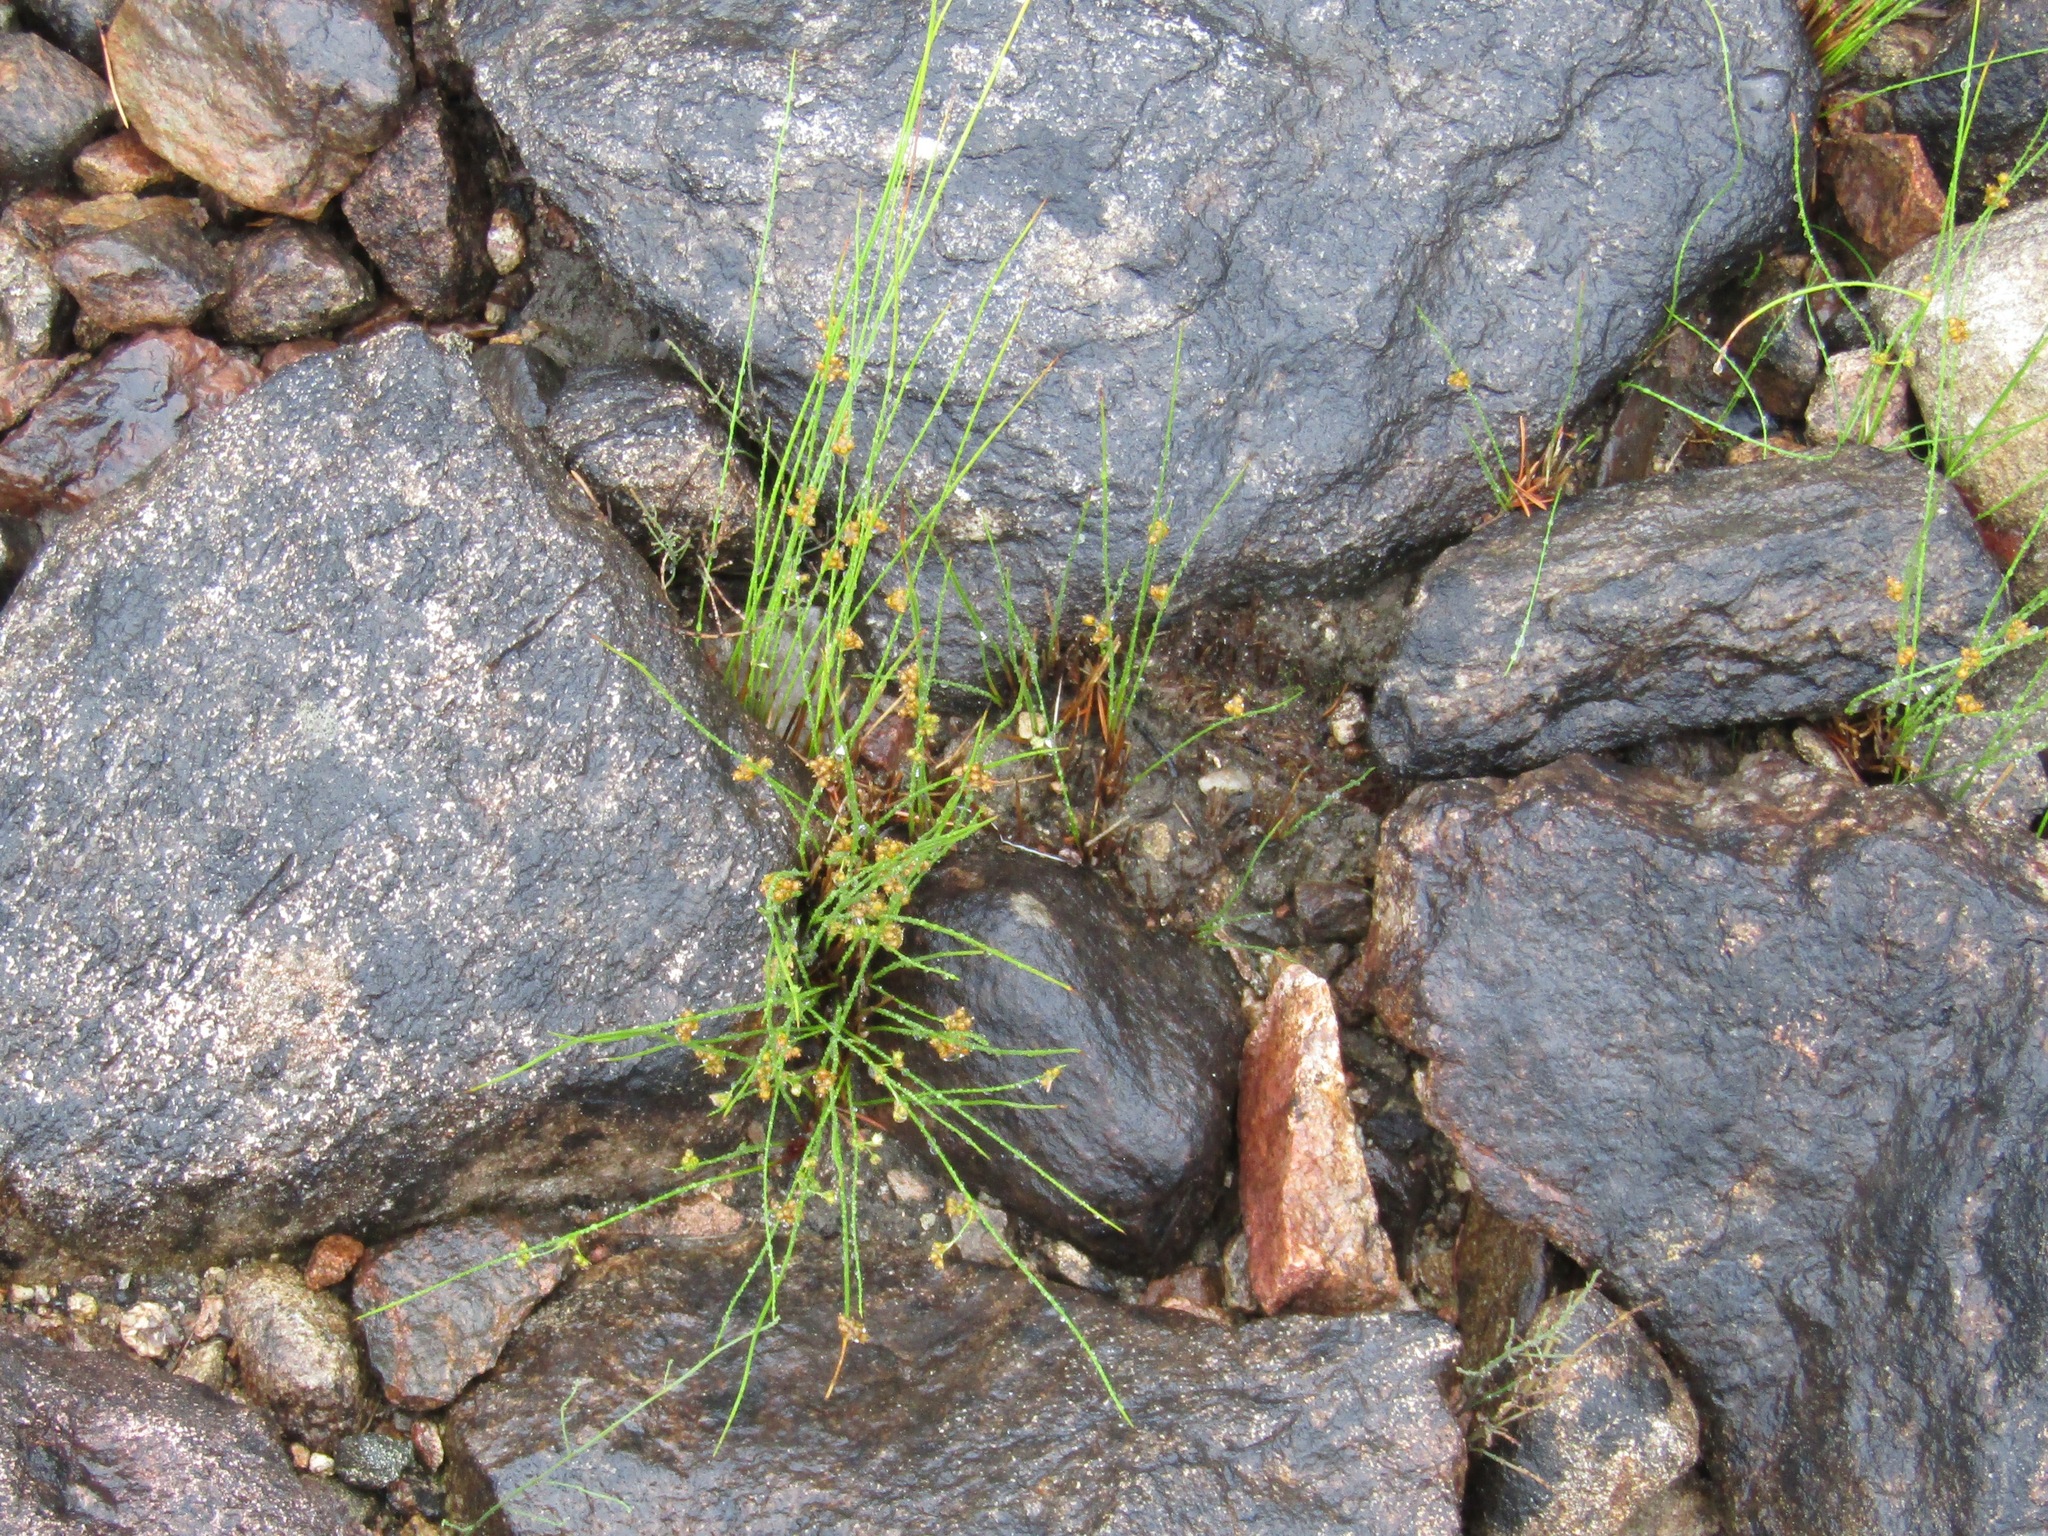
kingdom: Plantae
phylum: Tracheophyta
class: Liliopsida
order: Poales
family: Juncaceae
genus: Juncus
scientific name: Juncus filiformis
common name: Thread rush
